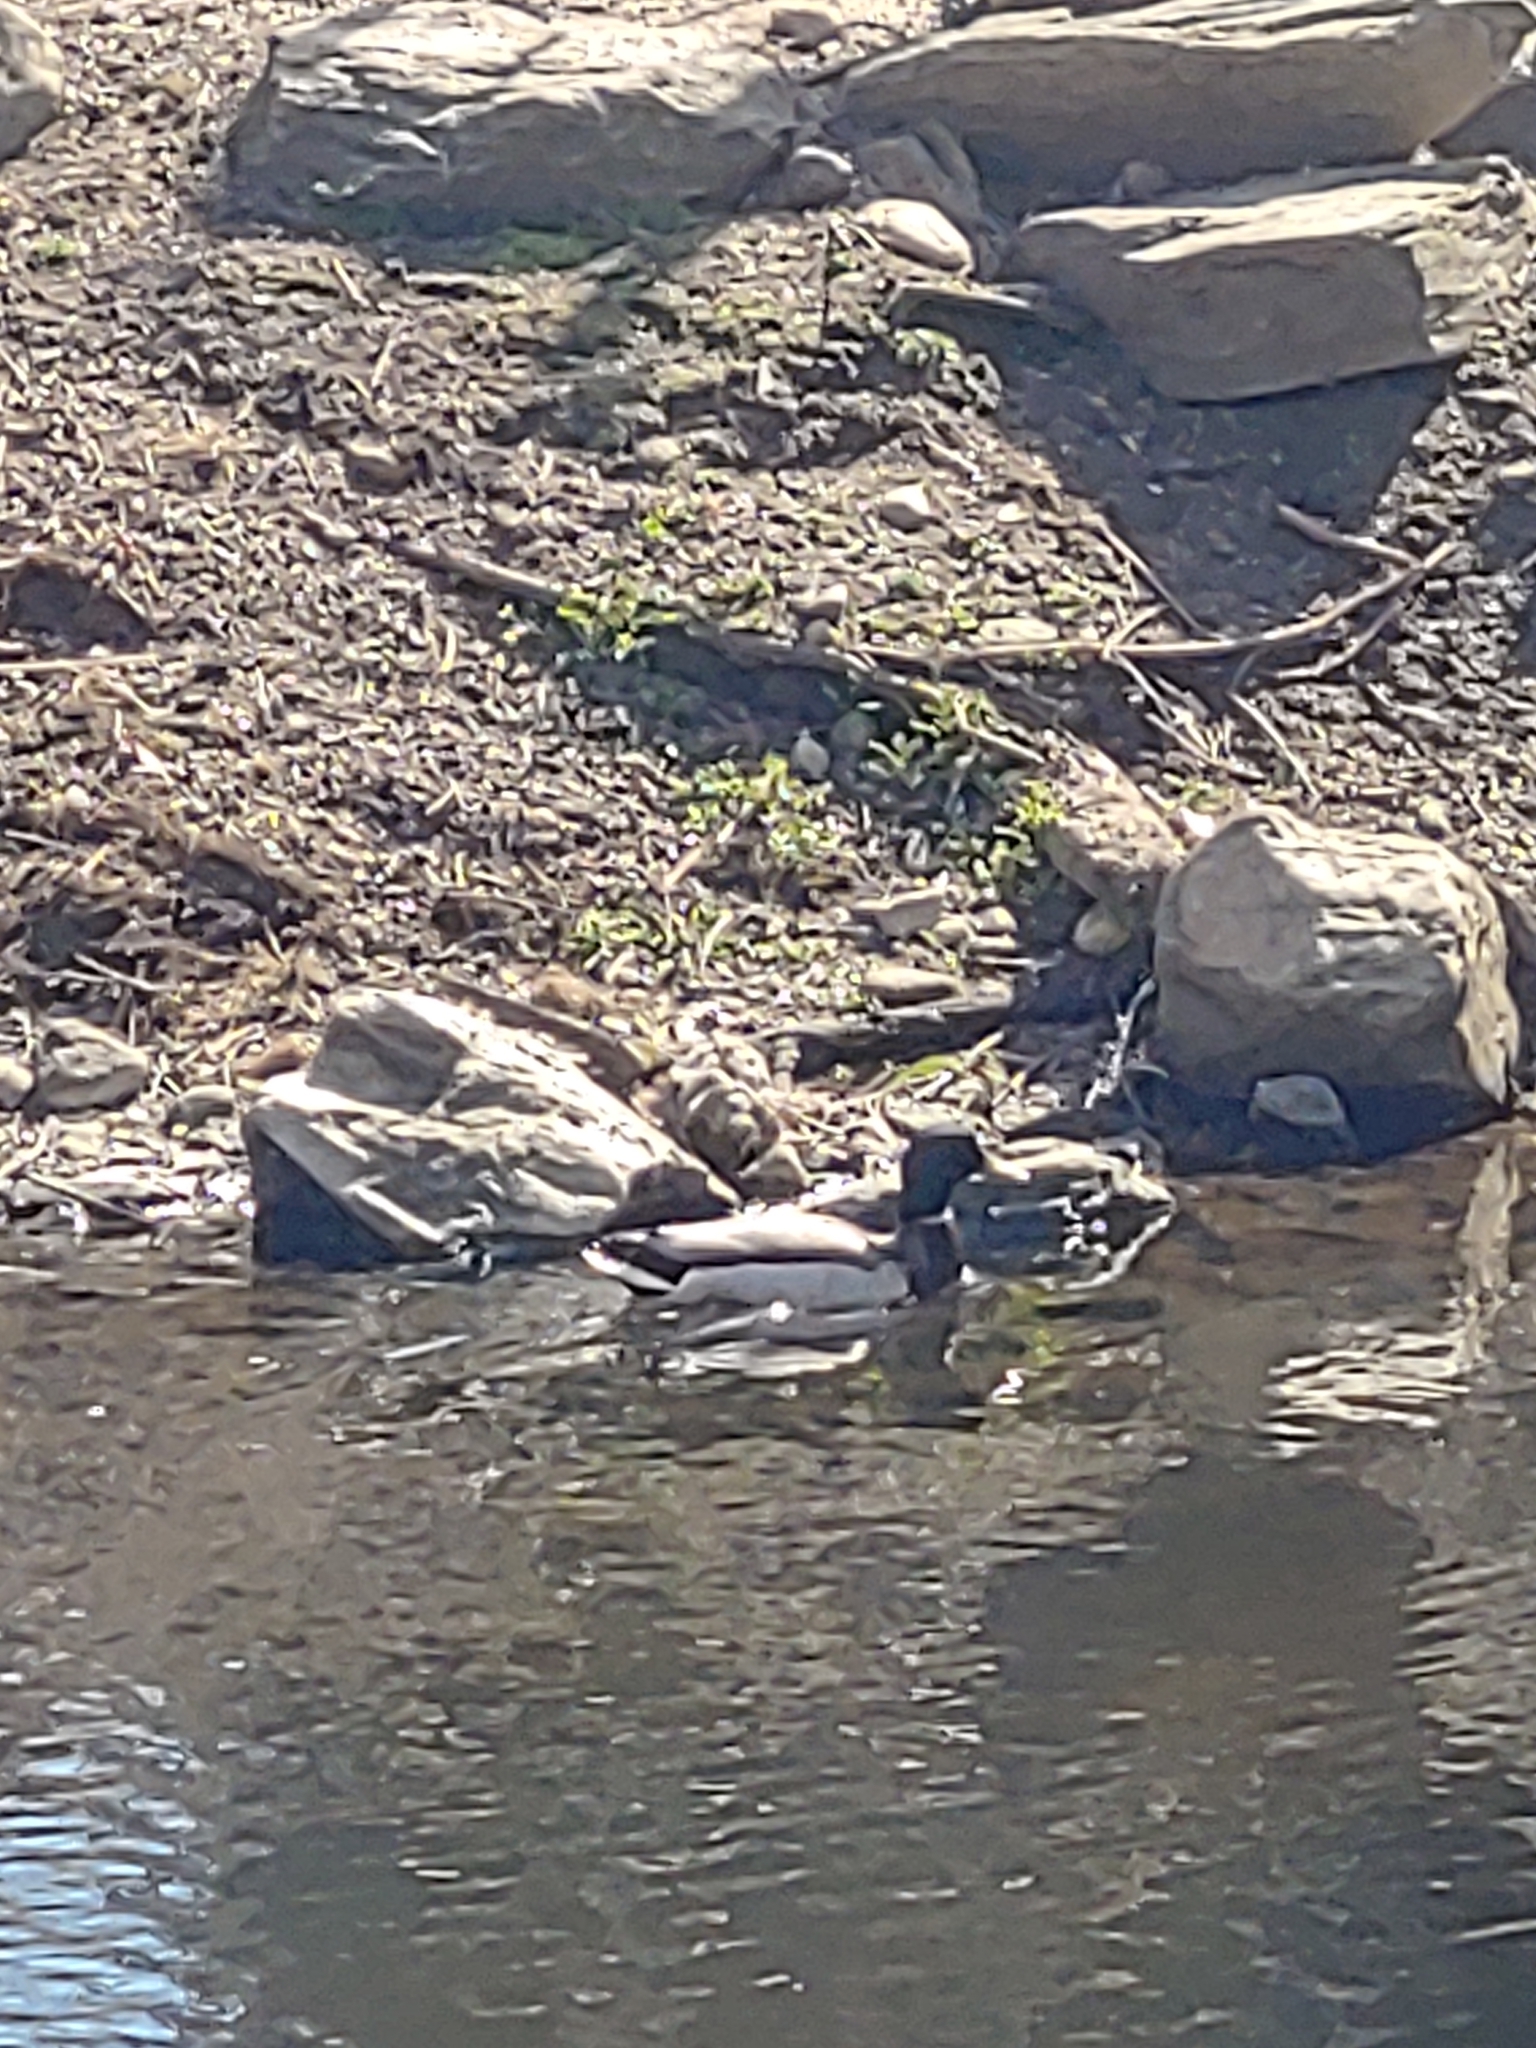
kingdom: Animalia
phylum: Chordata
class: Aves
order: Anseriformes
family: Anatidae
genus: Anas
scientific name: Anas platyrhynchos
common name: Mallard
